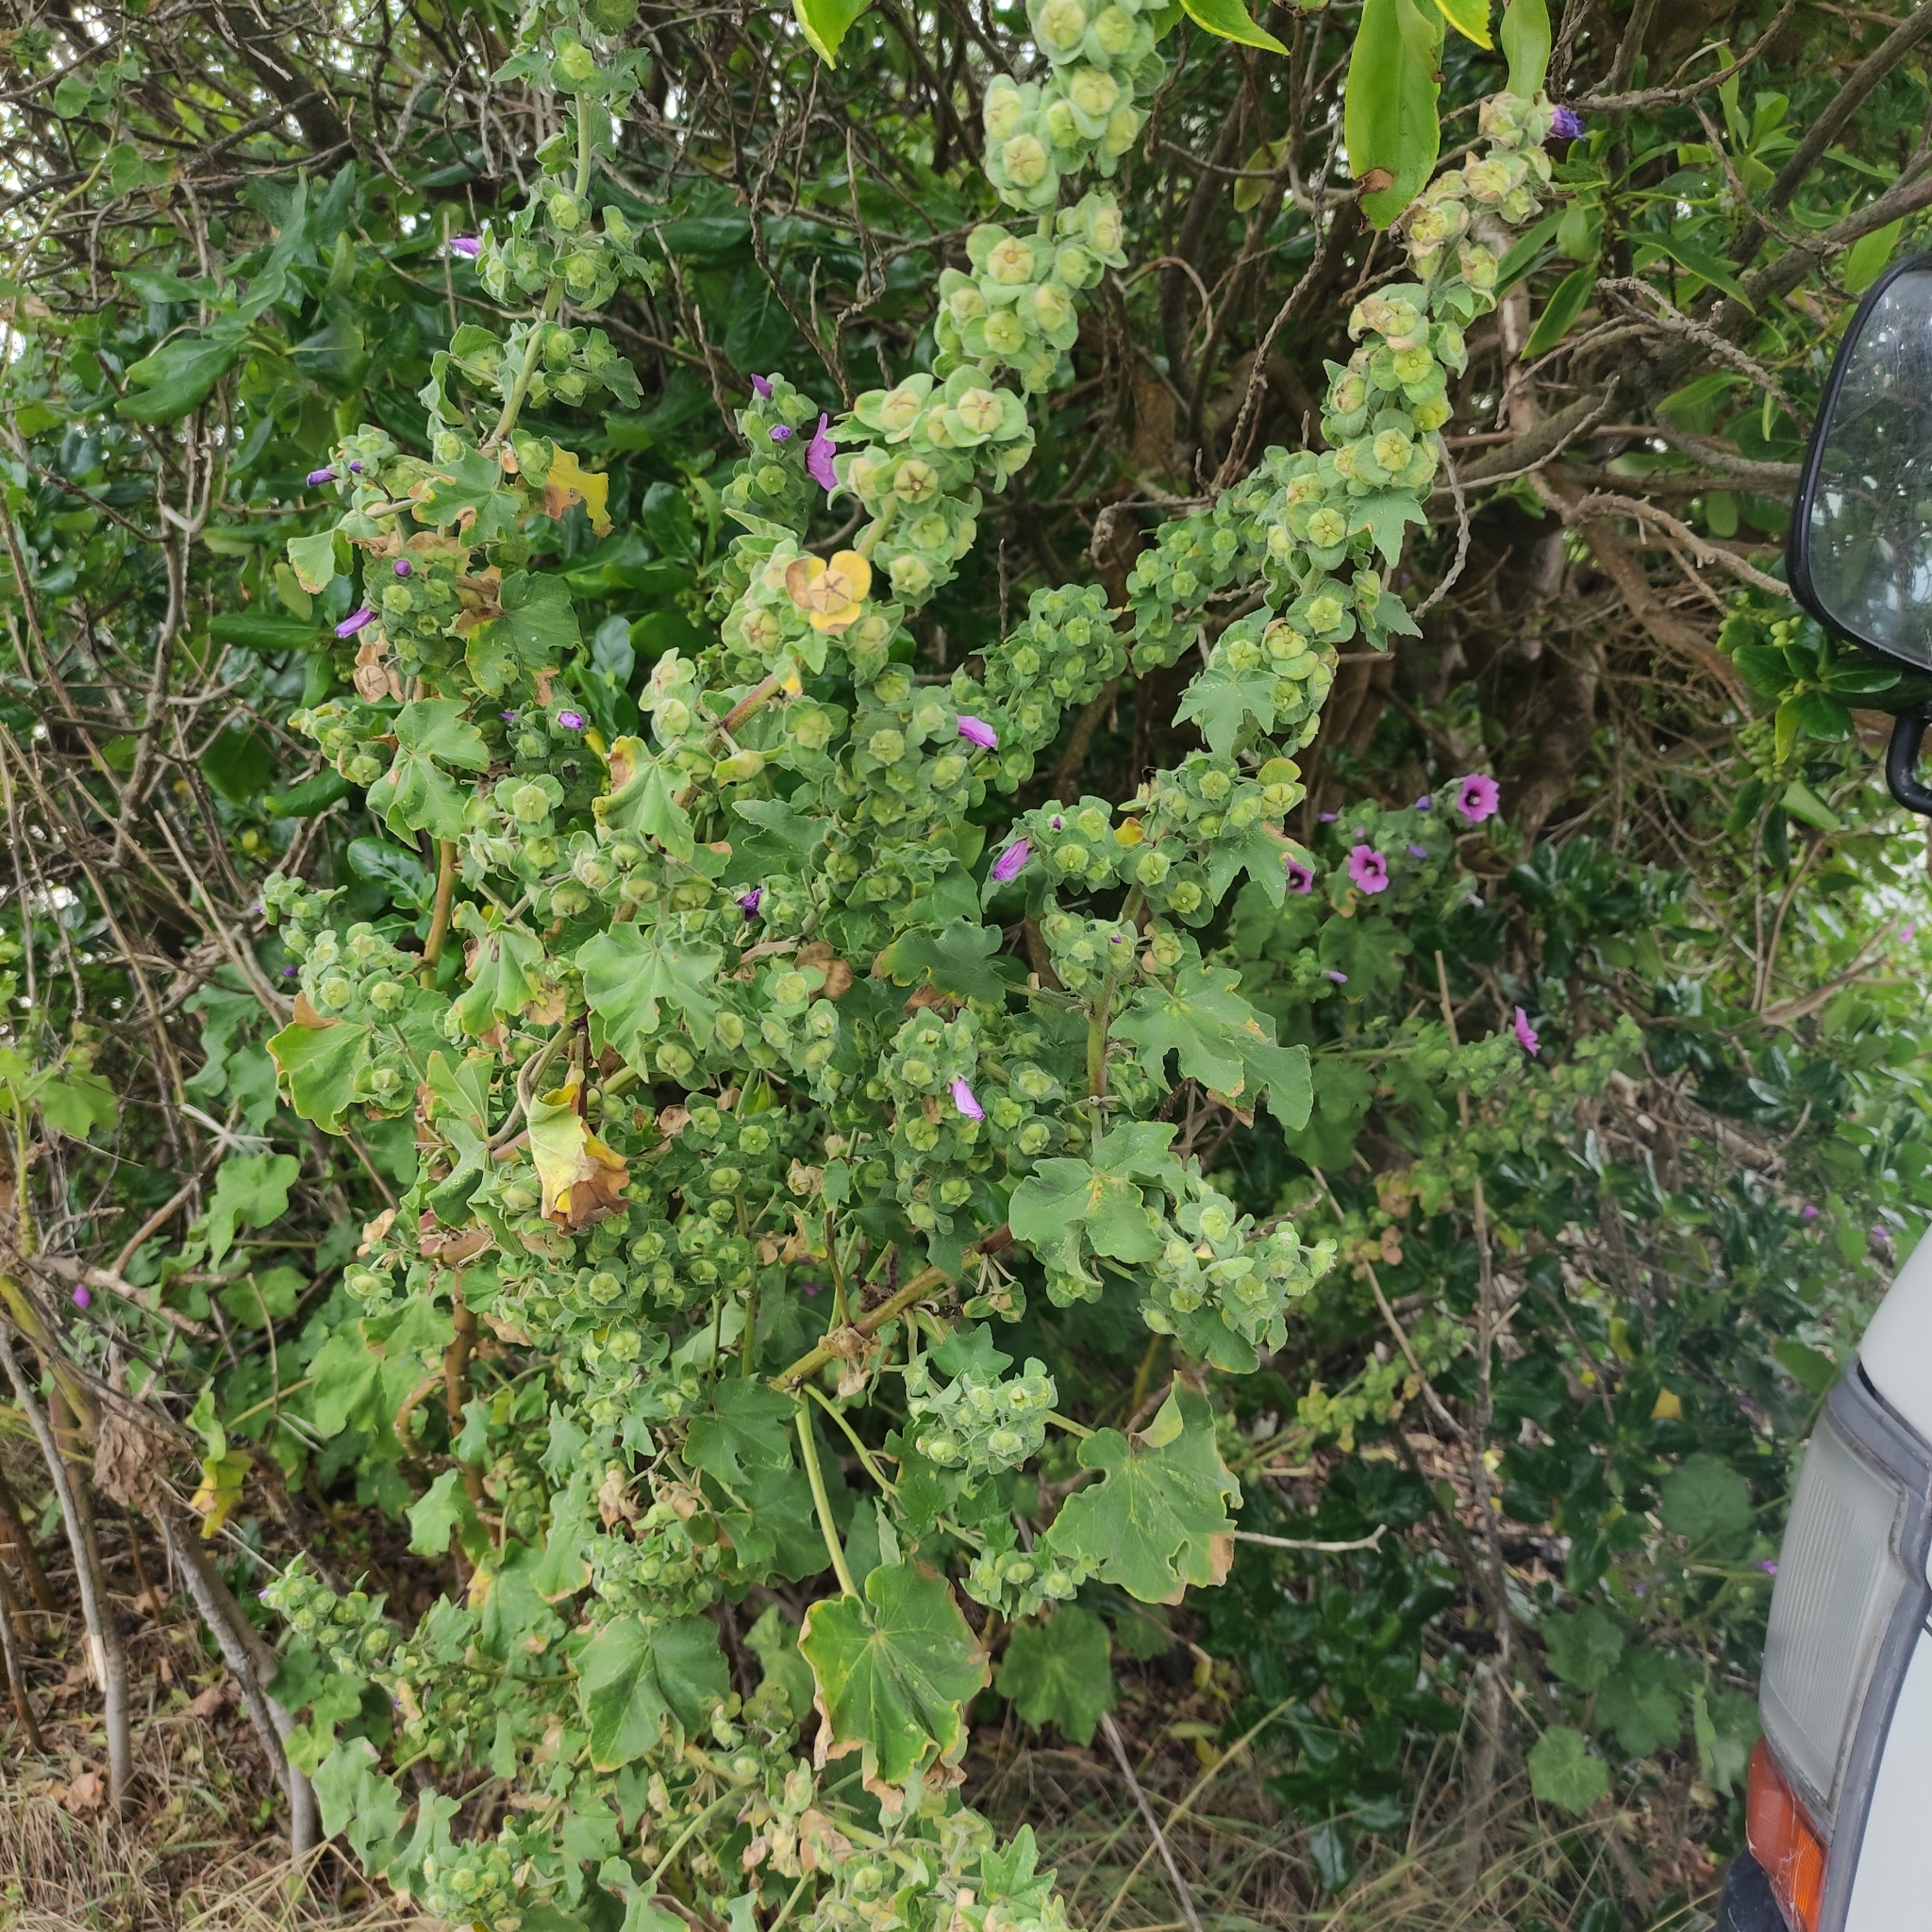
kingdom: Plantae
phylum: Tracheophyta
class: Magnoliopsida
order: Malvales
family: Malvaceae
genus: Malva
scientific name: Malva arborea
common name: Tree mallow
